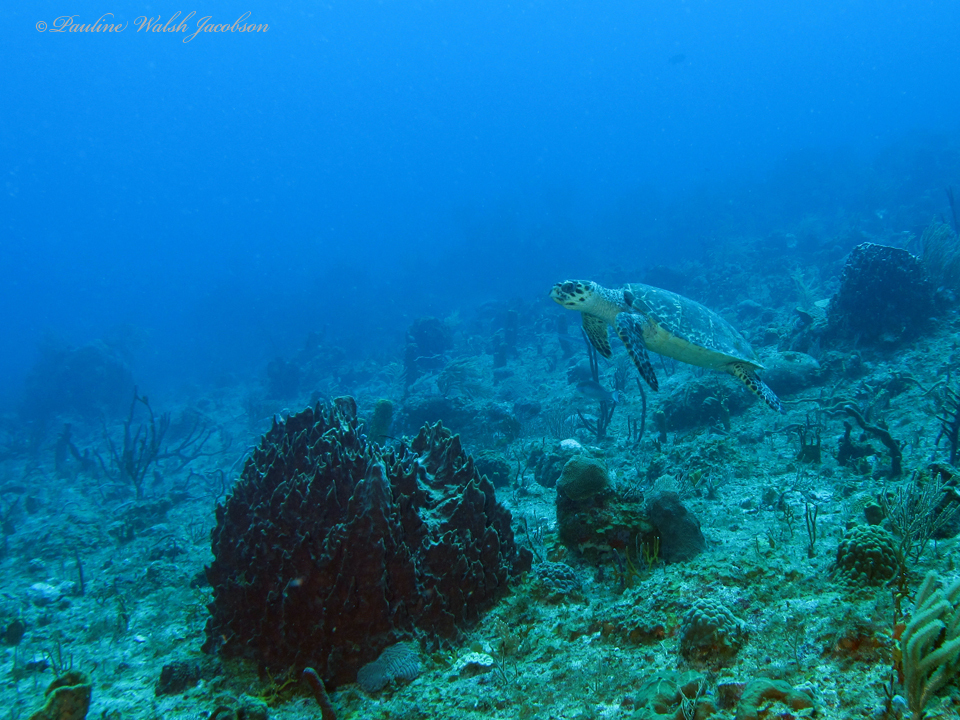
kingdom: Animalia
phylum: Chordata
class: Testudines
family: Cheloniidae
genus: Eretmochelys
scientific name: Eretmochelys imbricata
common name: Hawksbill turtle
